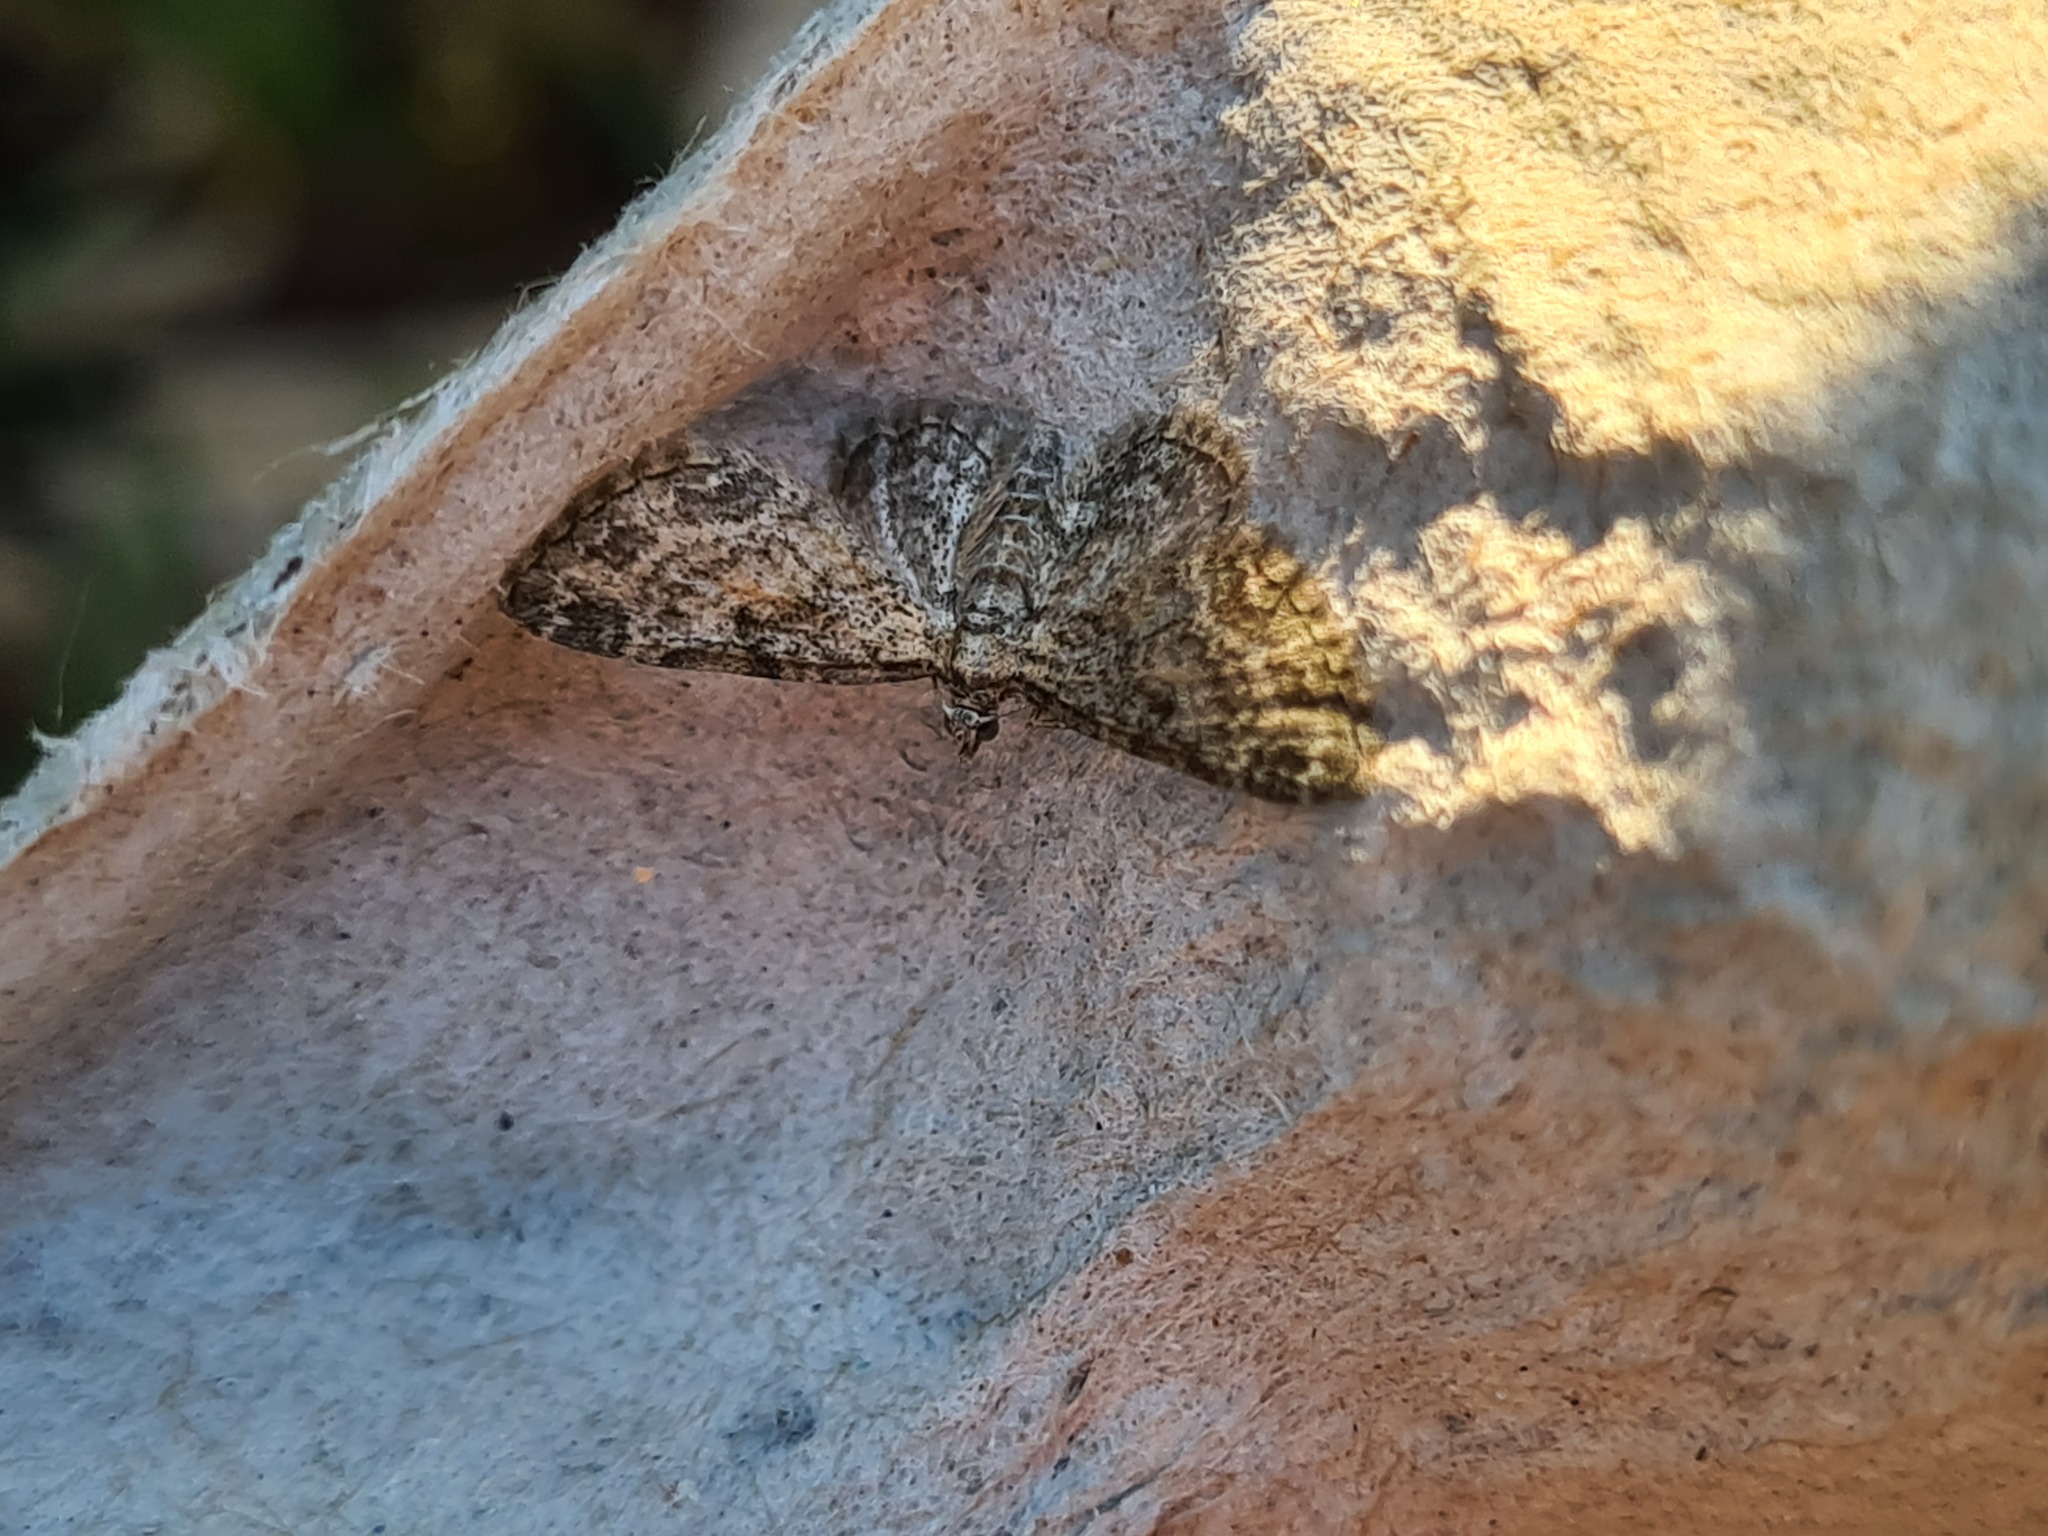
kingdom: Animalia
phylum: Arthropoda
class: Insecta
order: Lepidoptera
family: Geometridae
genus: Eupithecia
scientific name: Eupithecia inturbata
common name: Maple pug
